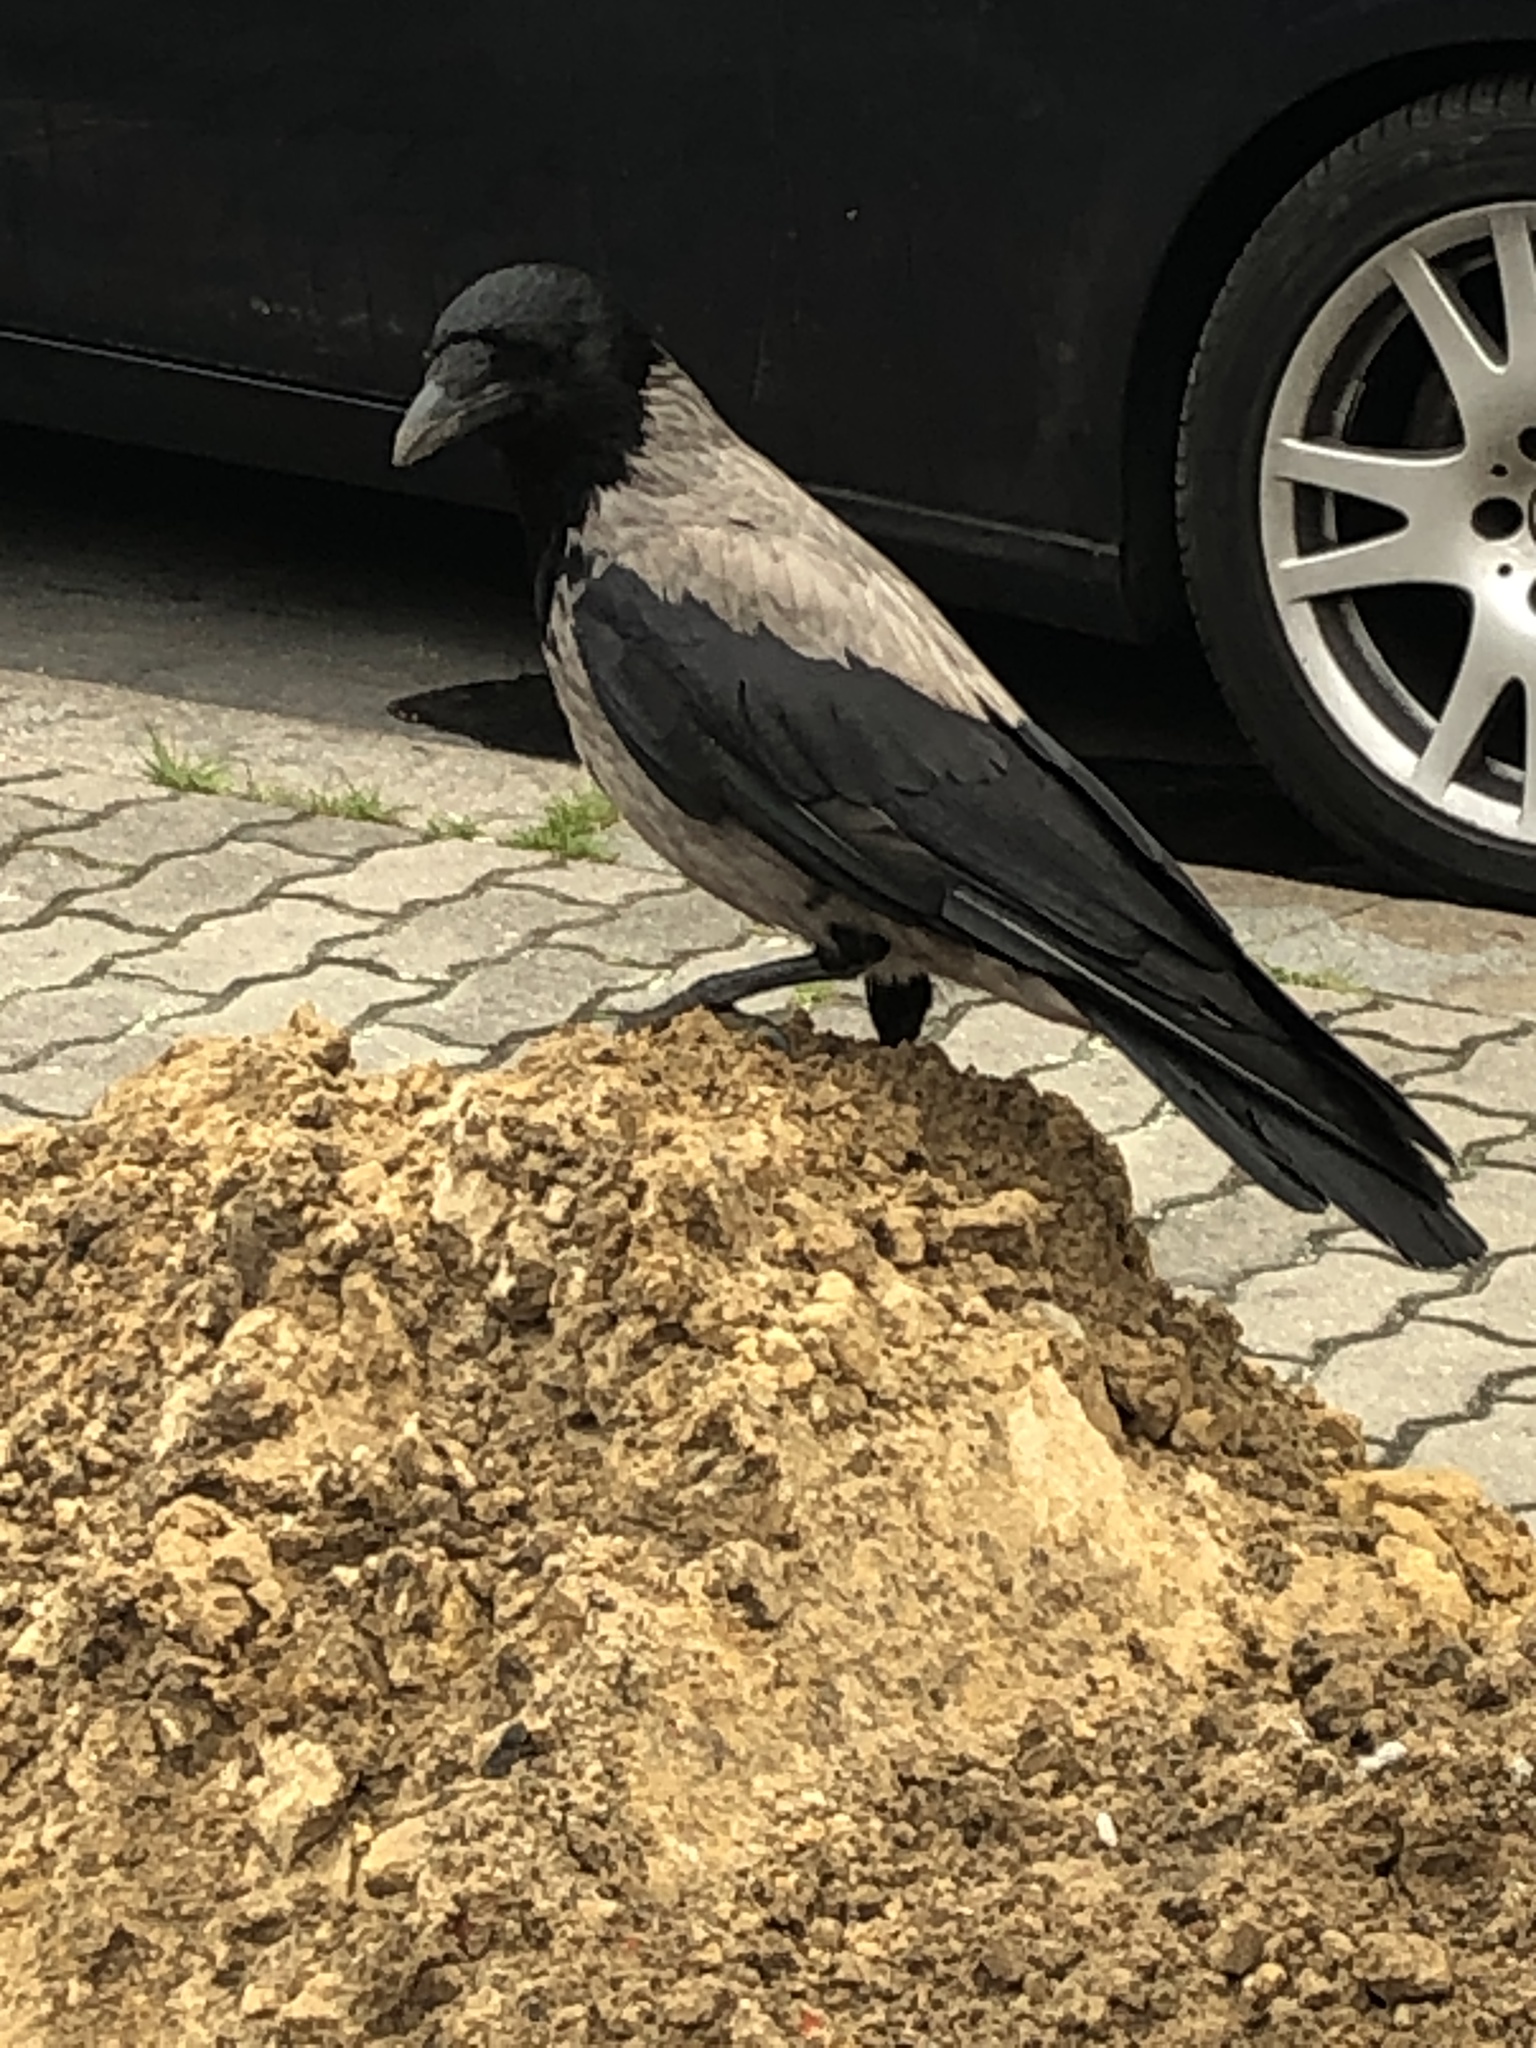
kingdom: Animalia
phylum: Chordata
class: Aves
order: Passeriformes
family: Corvidae
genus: Corvus
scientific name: Corvus cornix
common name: Hooded crow
